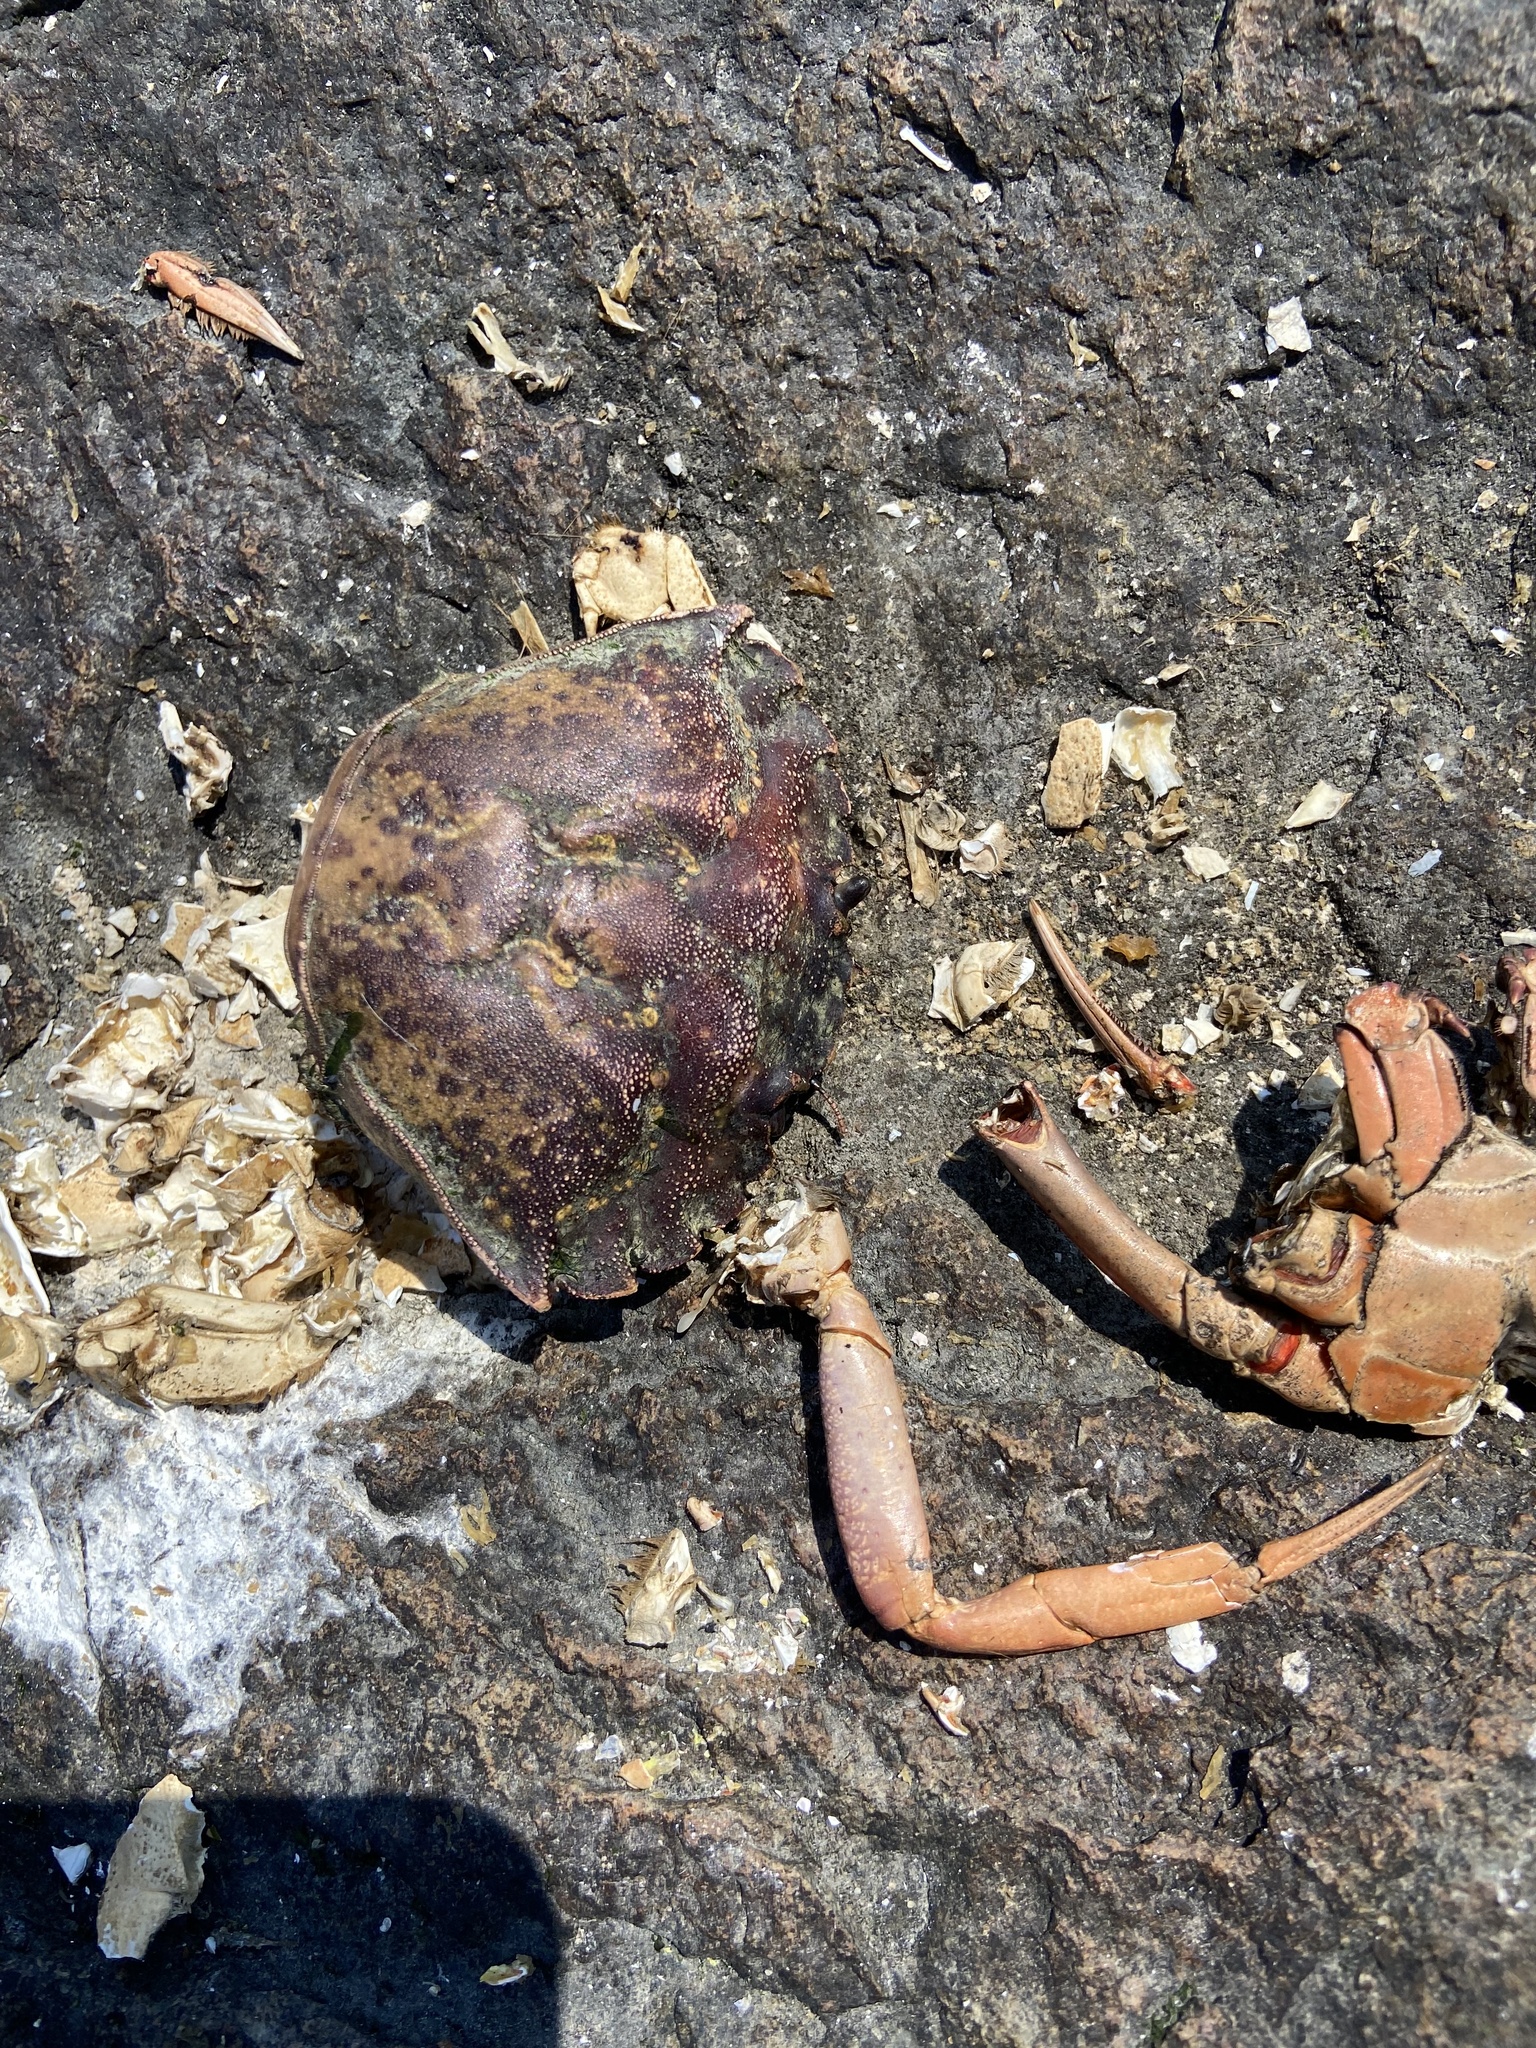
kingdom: Animalia
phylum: Arthropoda
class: Malacostraca
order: Decapoda
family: Carcinidae
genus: Carcinus
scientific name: Carcinus maenas
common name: European green crab
